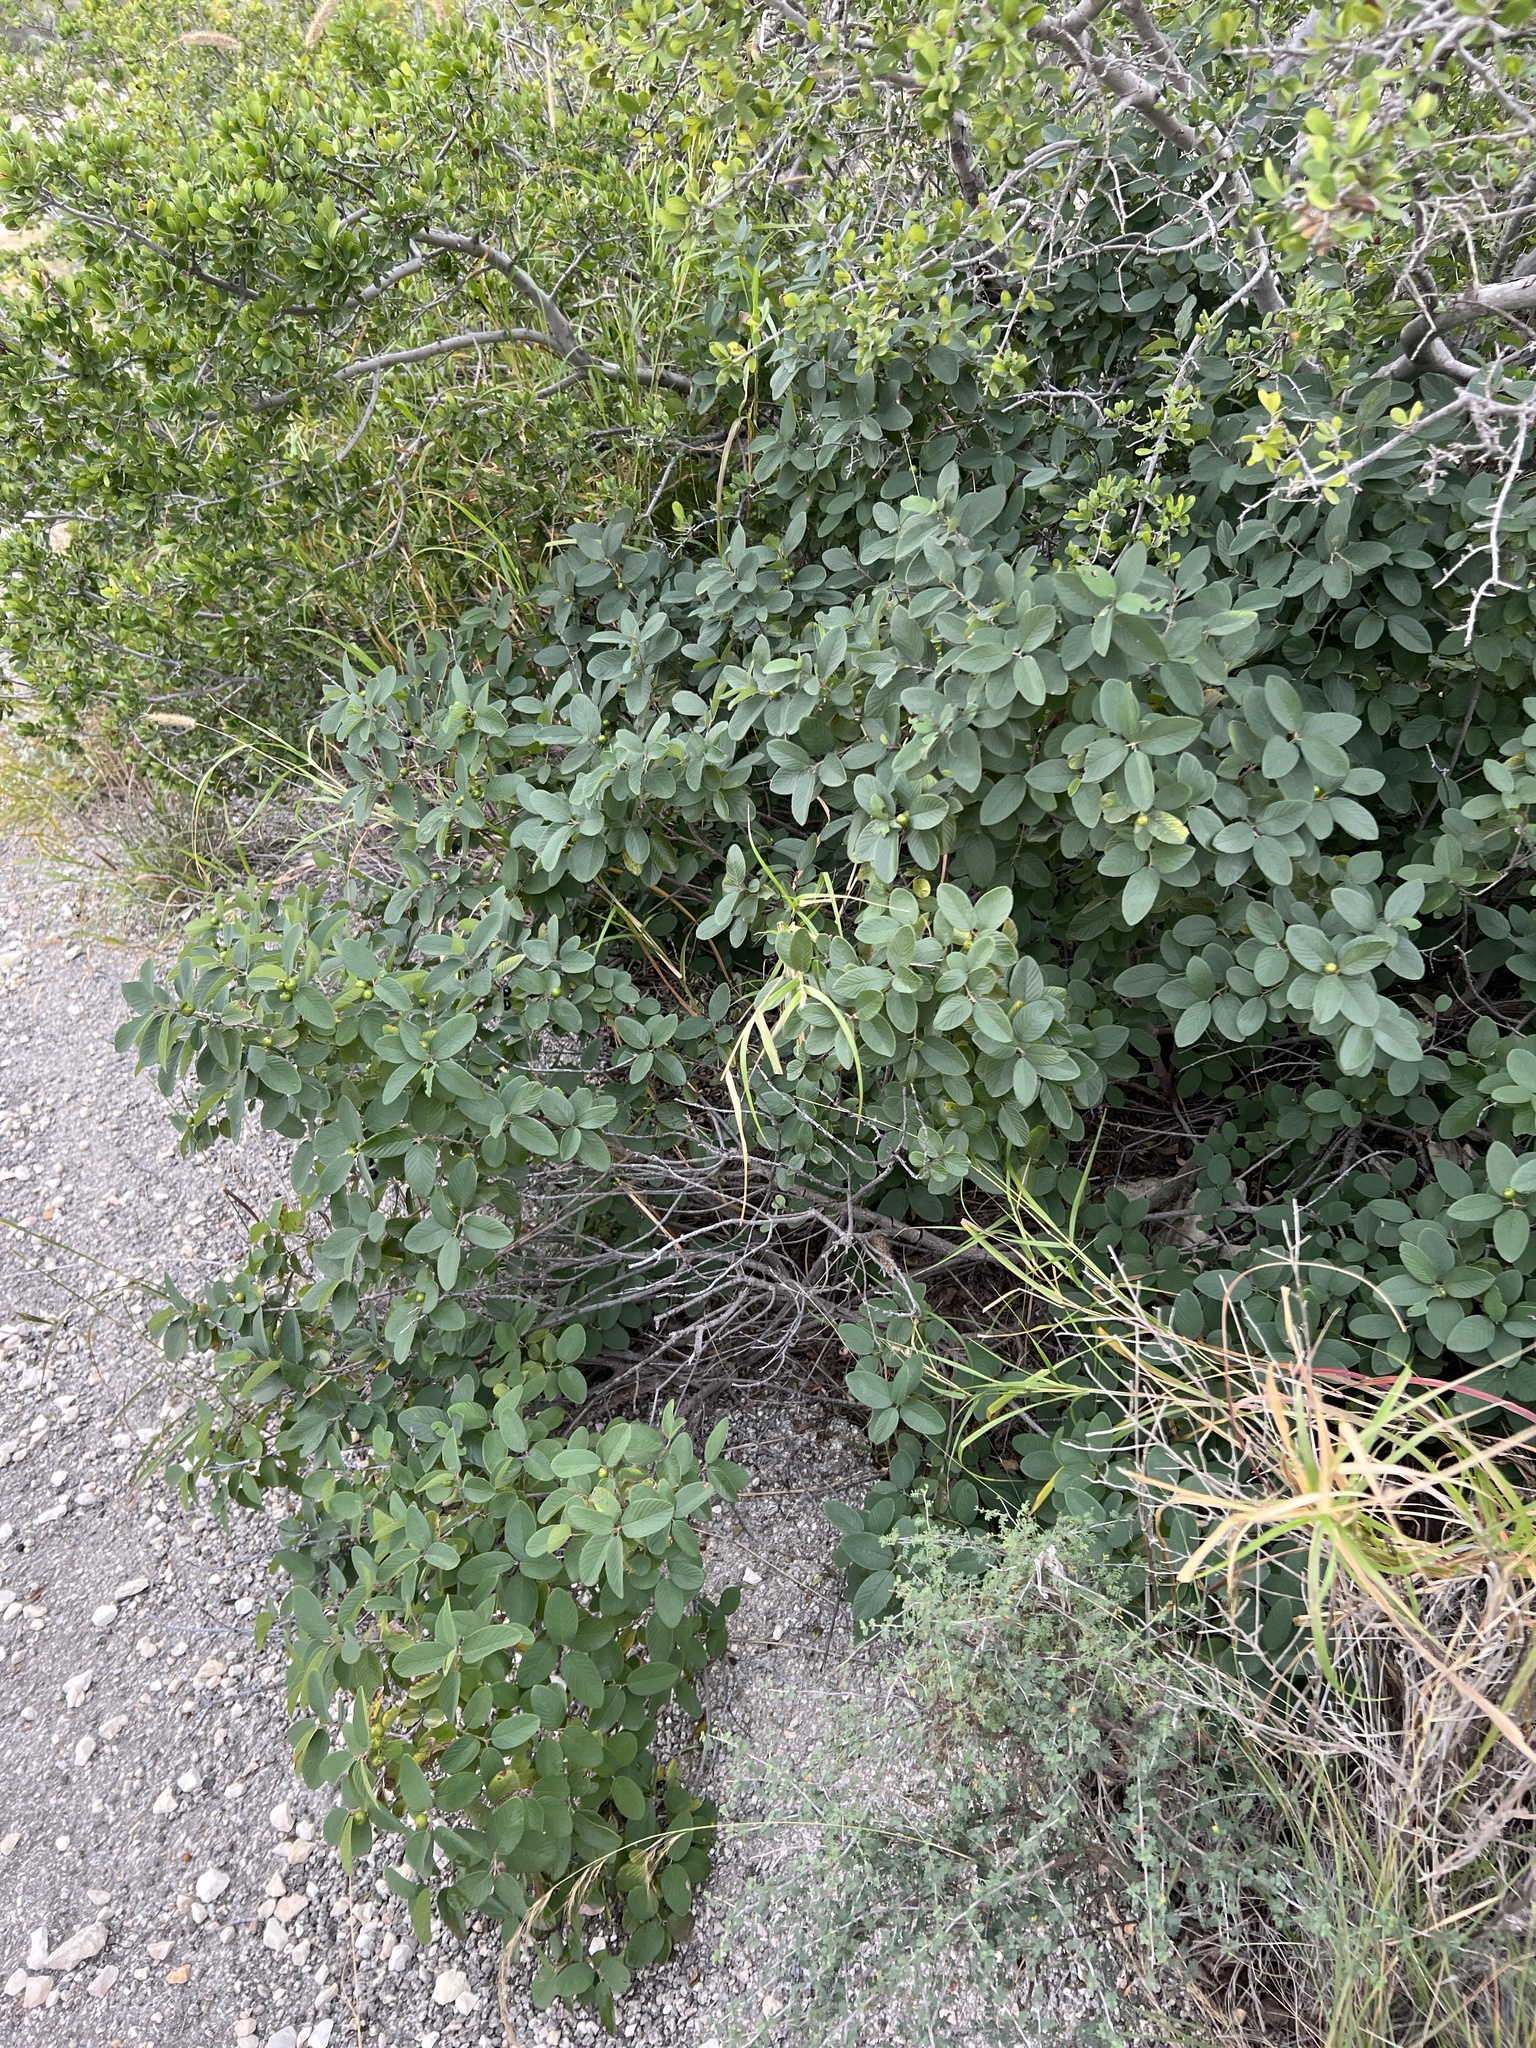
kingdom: Plantae
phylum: Tracheophyta
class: Magnoliopsida
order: Rosales
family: Rhamnaceae
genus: Karwinskia
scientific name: Karwinskia humboldtiana
